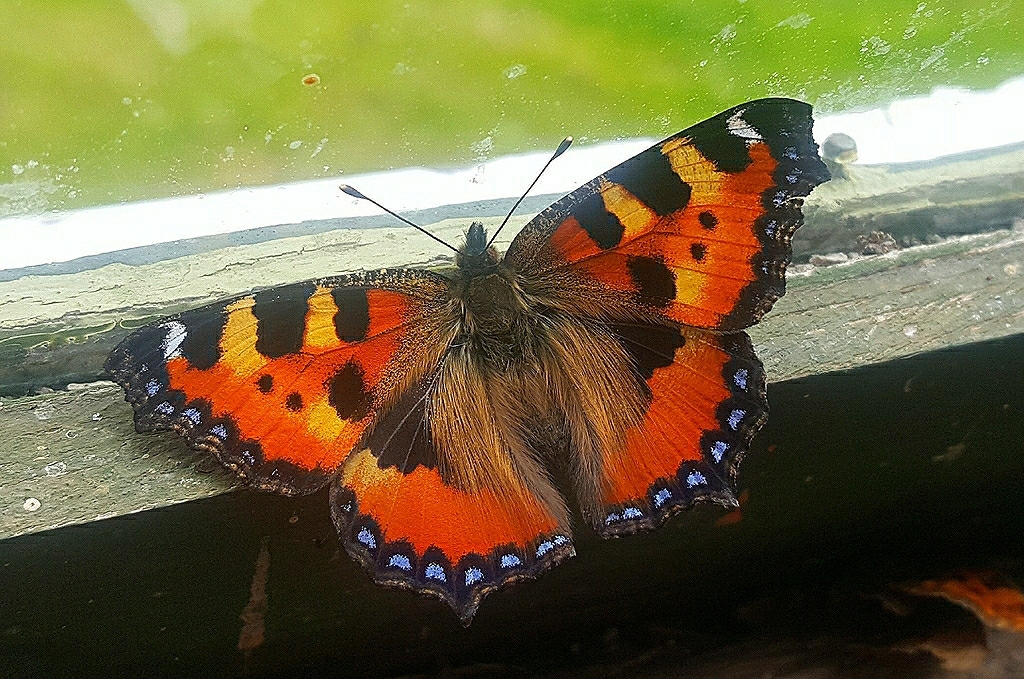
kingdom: Animalia
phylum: Arthropoda
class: Insecta
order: Lepidoptera
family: Nymphalidae
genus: Aglais
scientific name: Aglais urticae
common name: Small tortoiseshell
